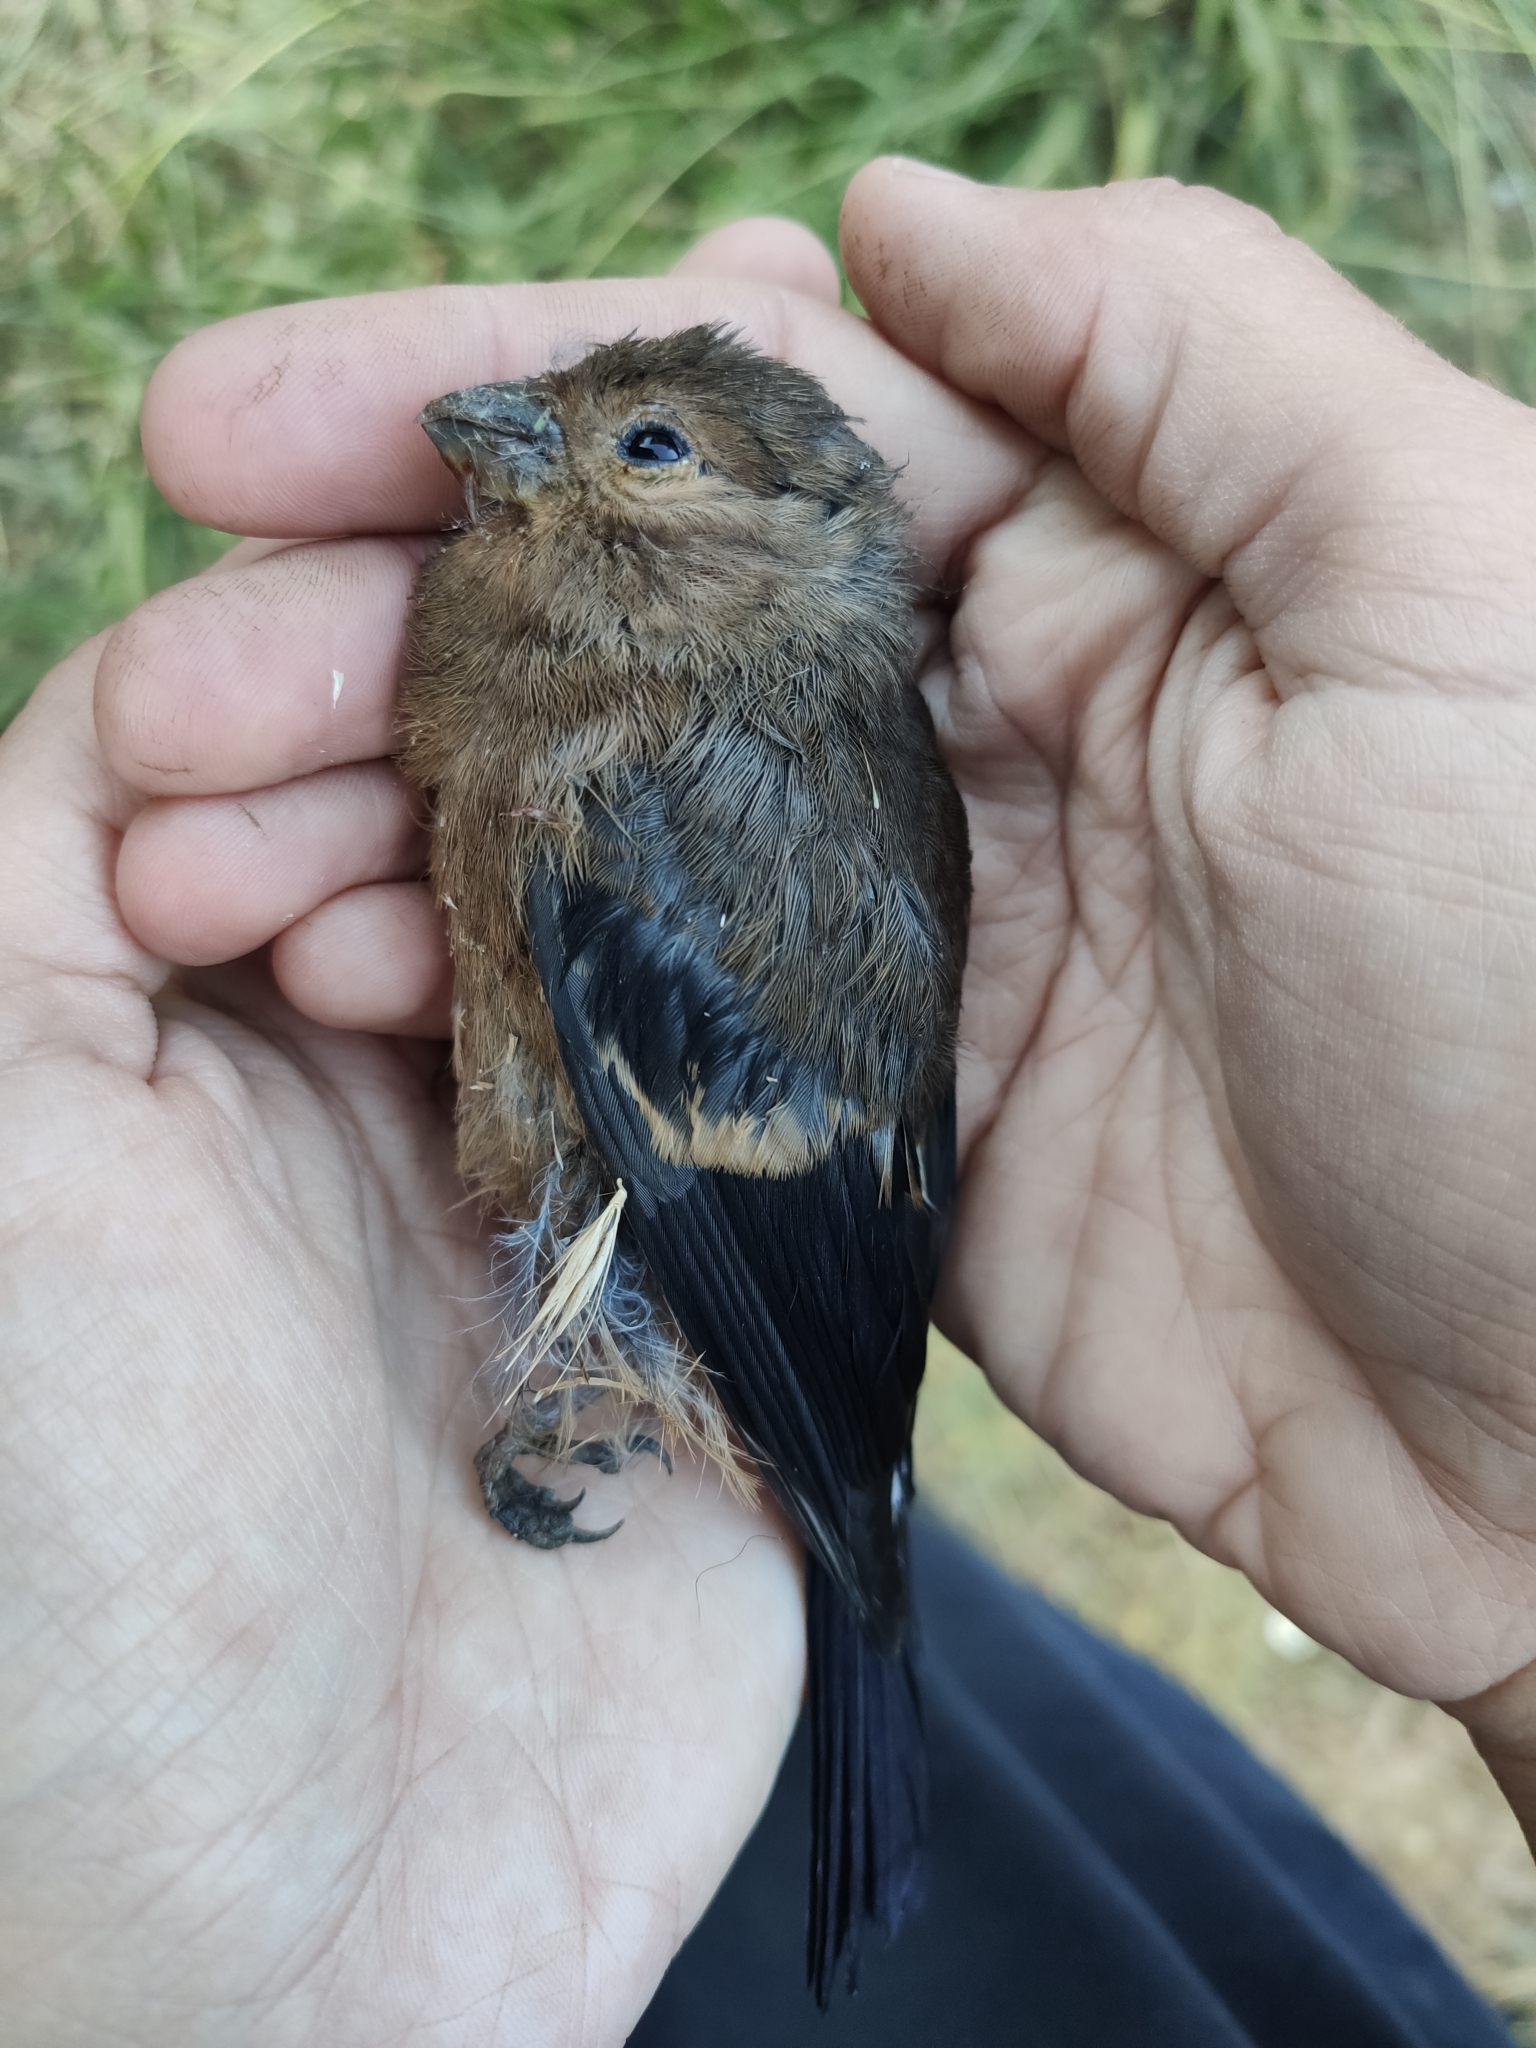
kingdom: Animalia
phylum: Chordata
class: Aves
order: Passeriformes
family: Fringillidae
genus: Pyrrhula
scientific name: Pyrrhula pyrrhula
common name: Eurasian bullfinch
